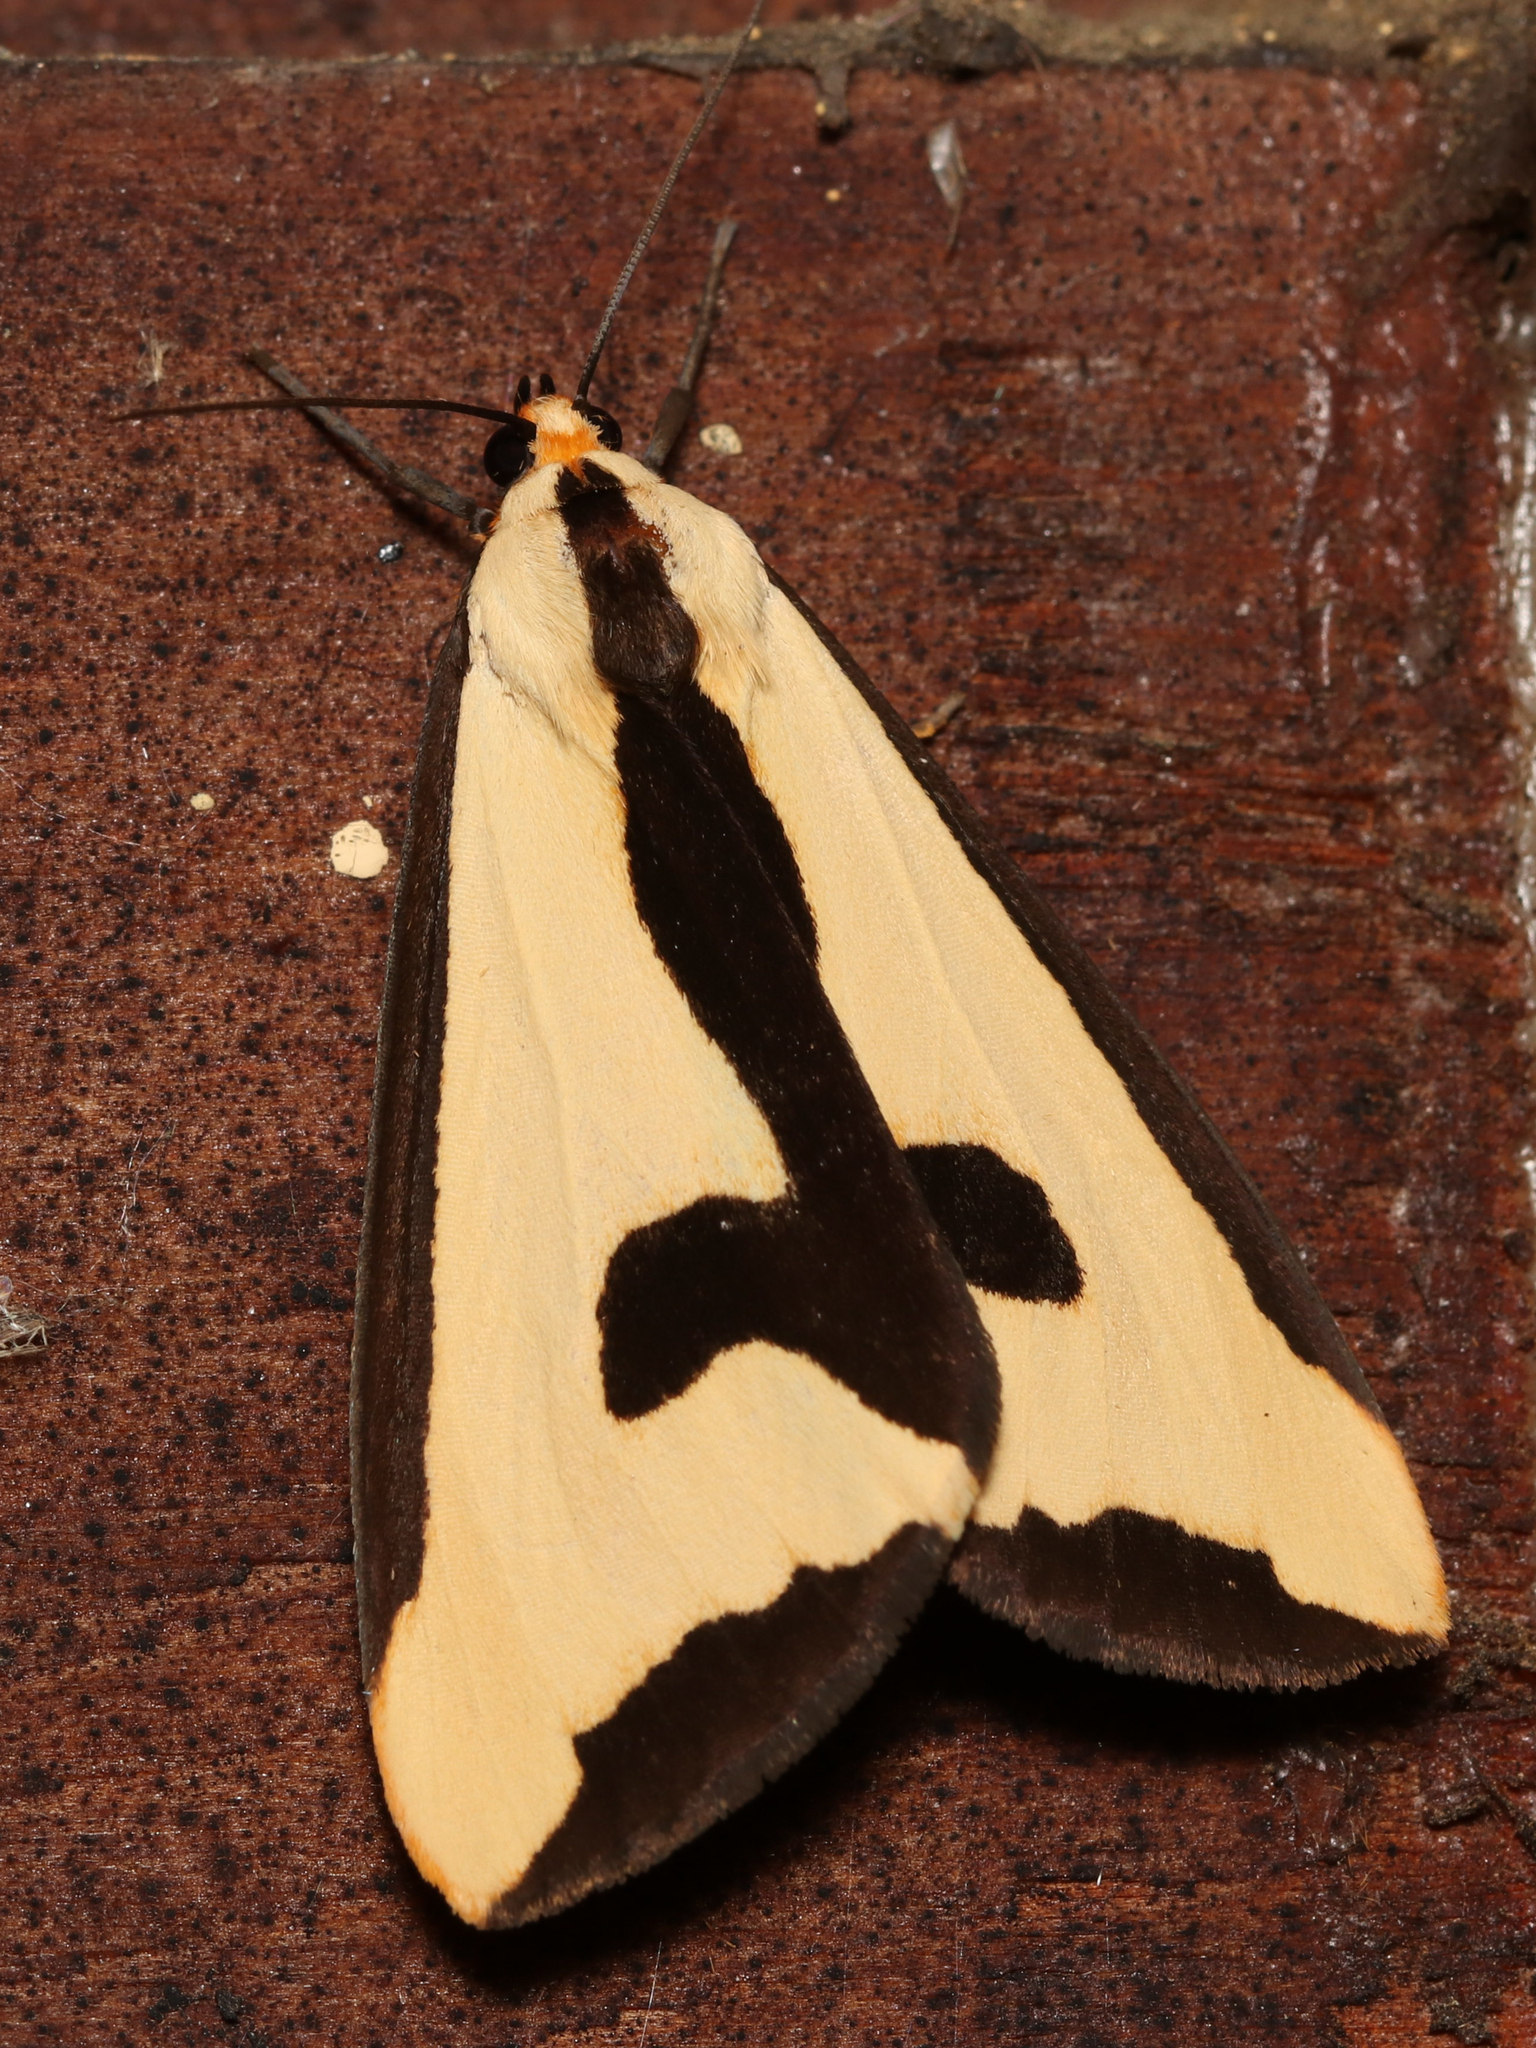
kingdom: Animalia
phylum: Arthropoda
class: Insecta
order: Lepidoptera
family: Erebidae
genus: Haploa
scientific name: Haploa clymene
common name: Clymene moth
